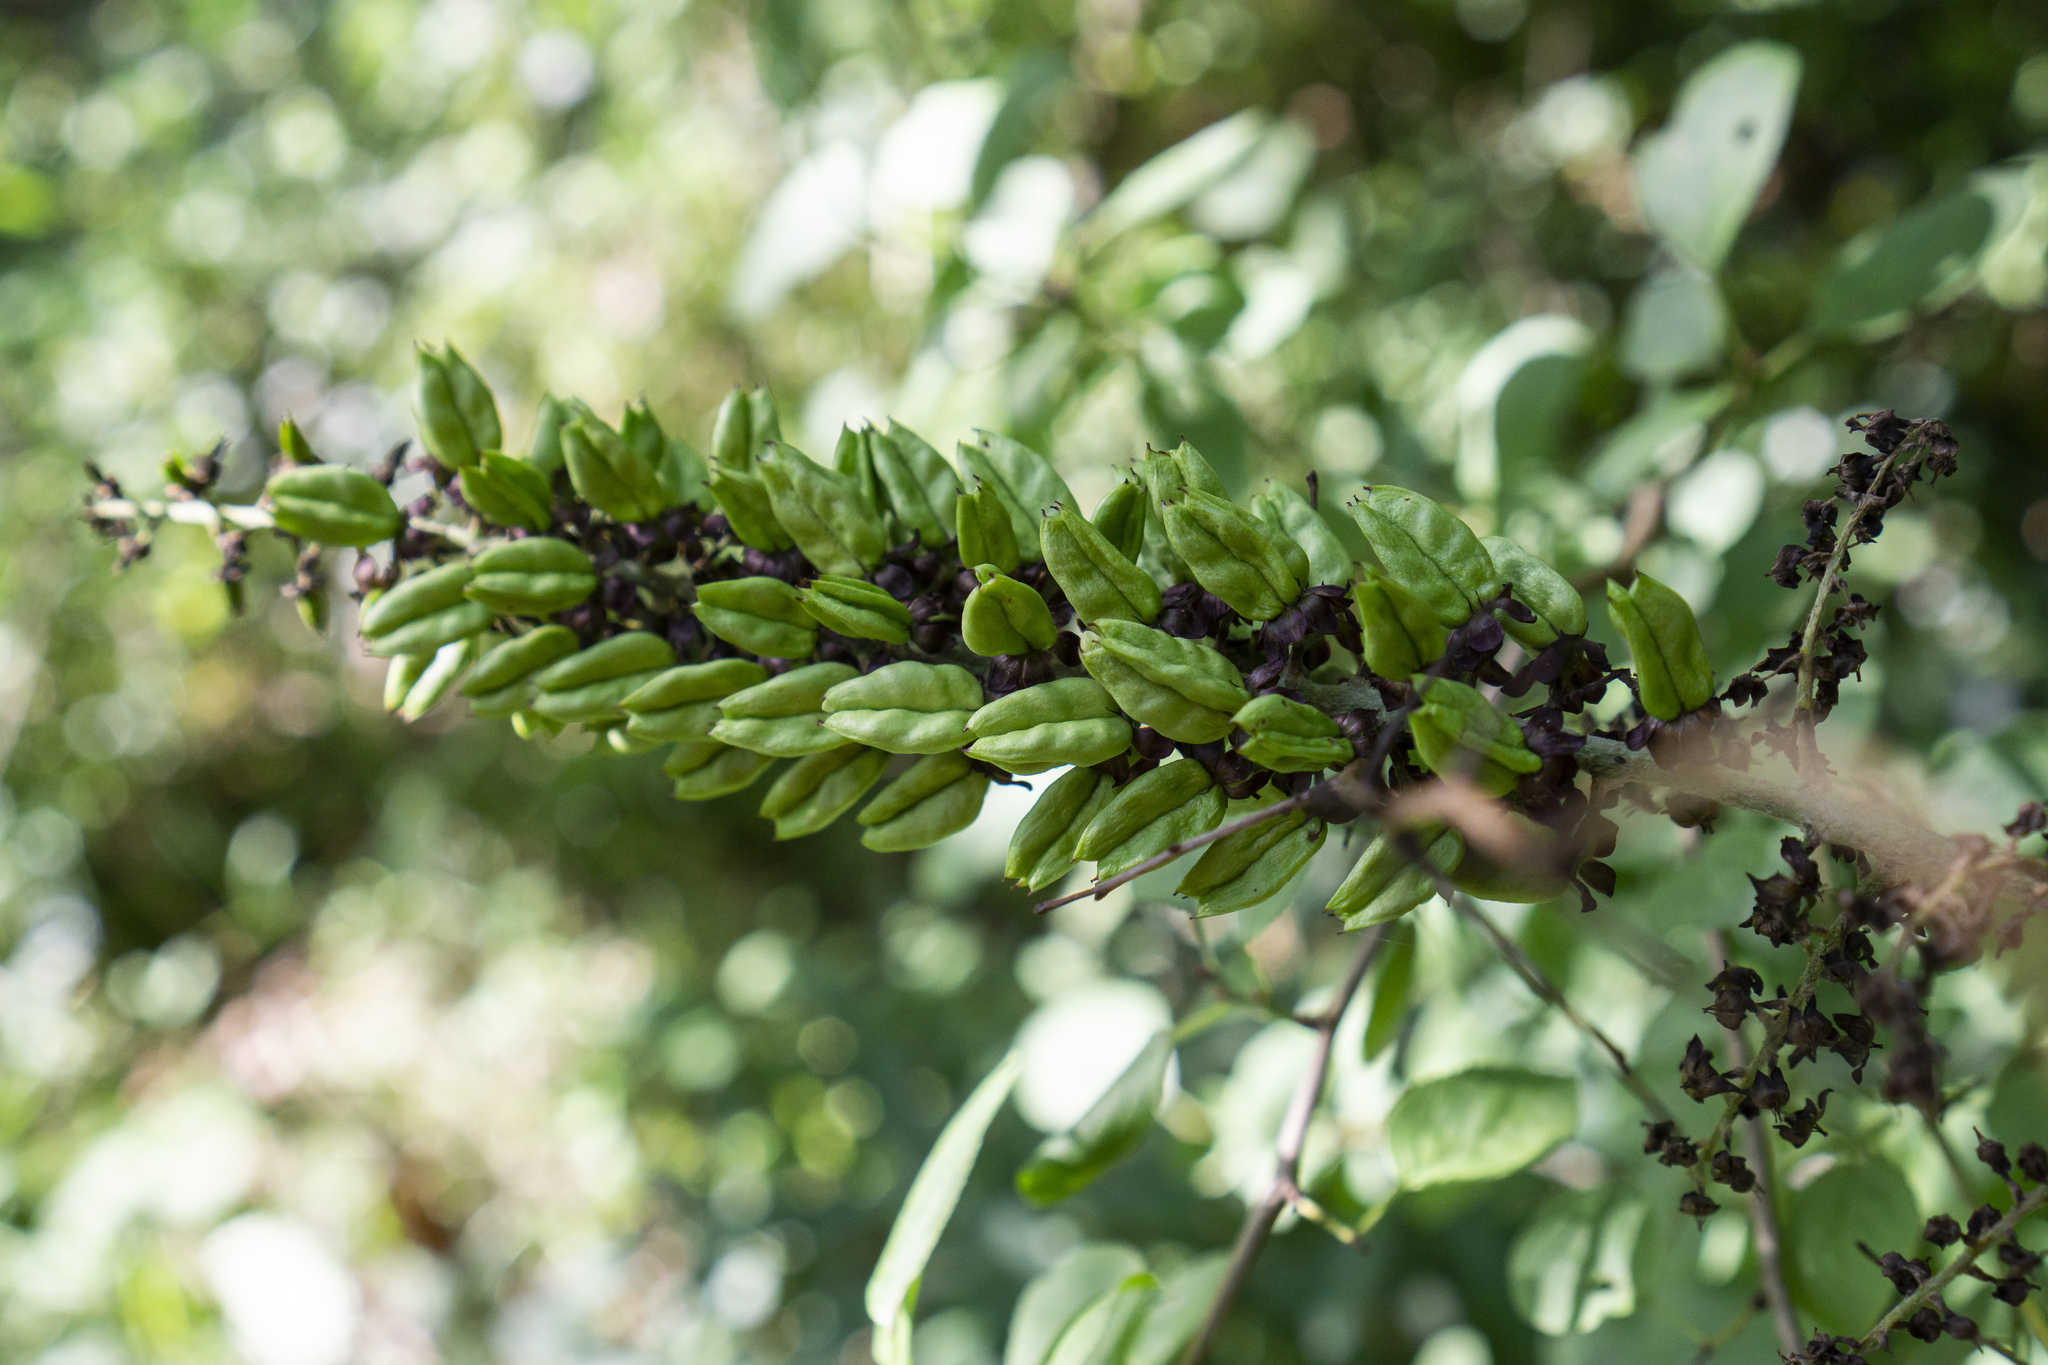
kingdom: Plantae
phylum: Tracheophyta
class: Liliopsida
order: Liliales
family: Melanthiaceae
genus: Veratrum
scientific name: Veratrum nigrum
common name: Black veratrum
